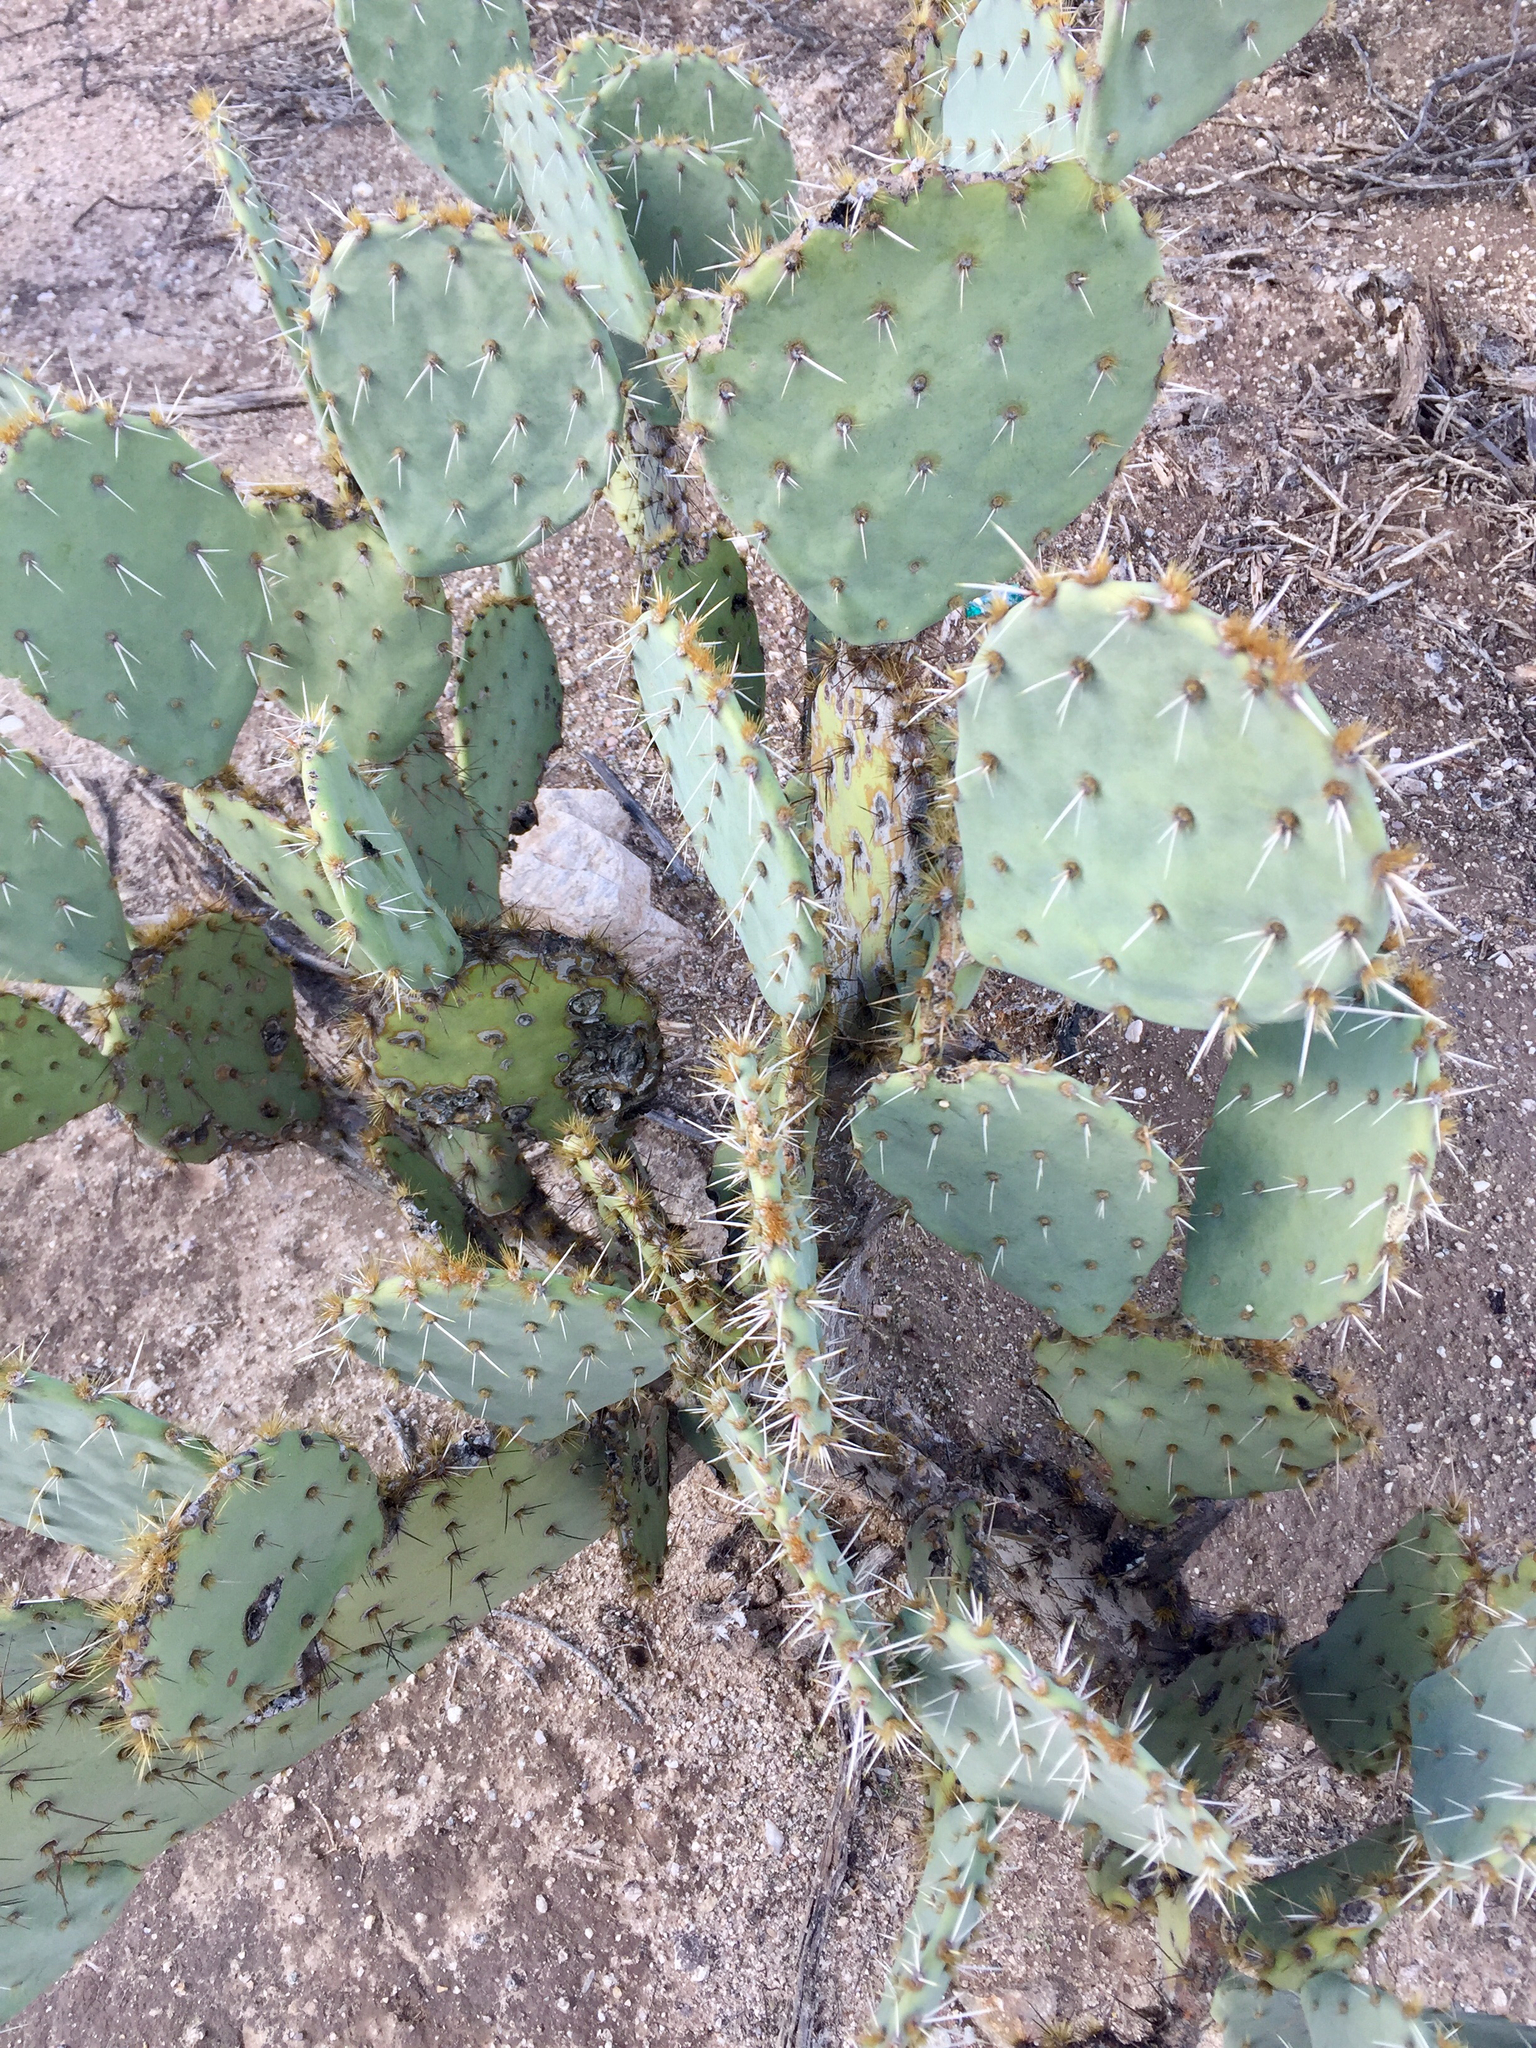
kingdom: Plantae
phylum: Tracheophyta
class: Magnoliopsida
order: Caryophyllales
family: Cactaceae
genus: Opuntia
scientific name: Opuntia engelmannii
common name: Cactus-apple
